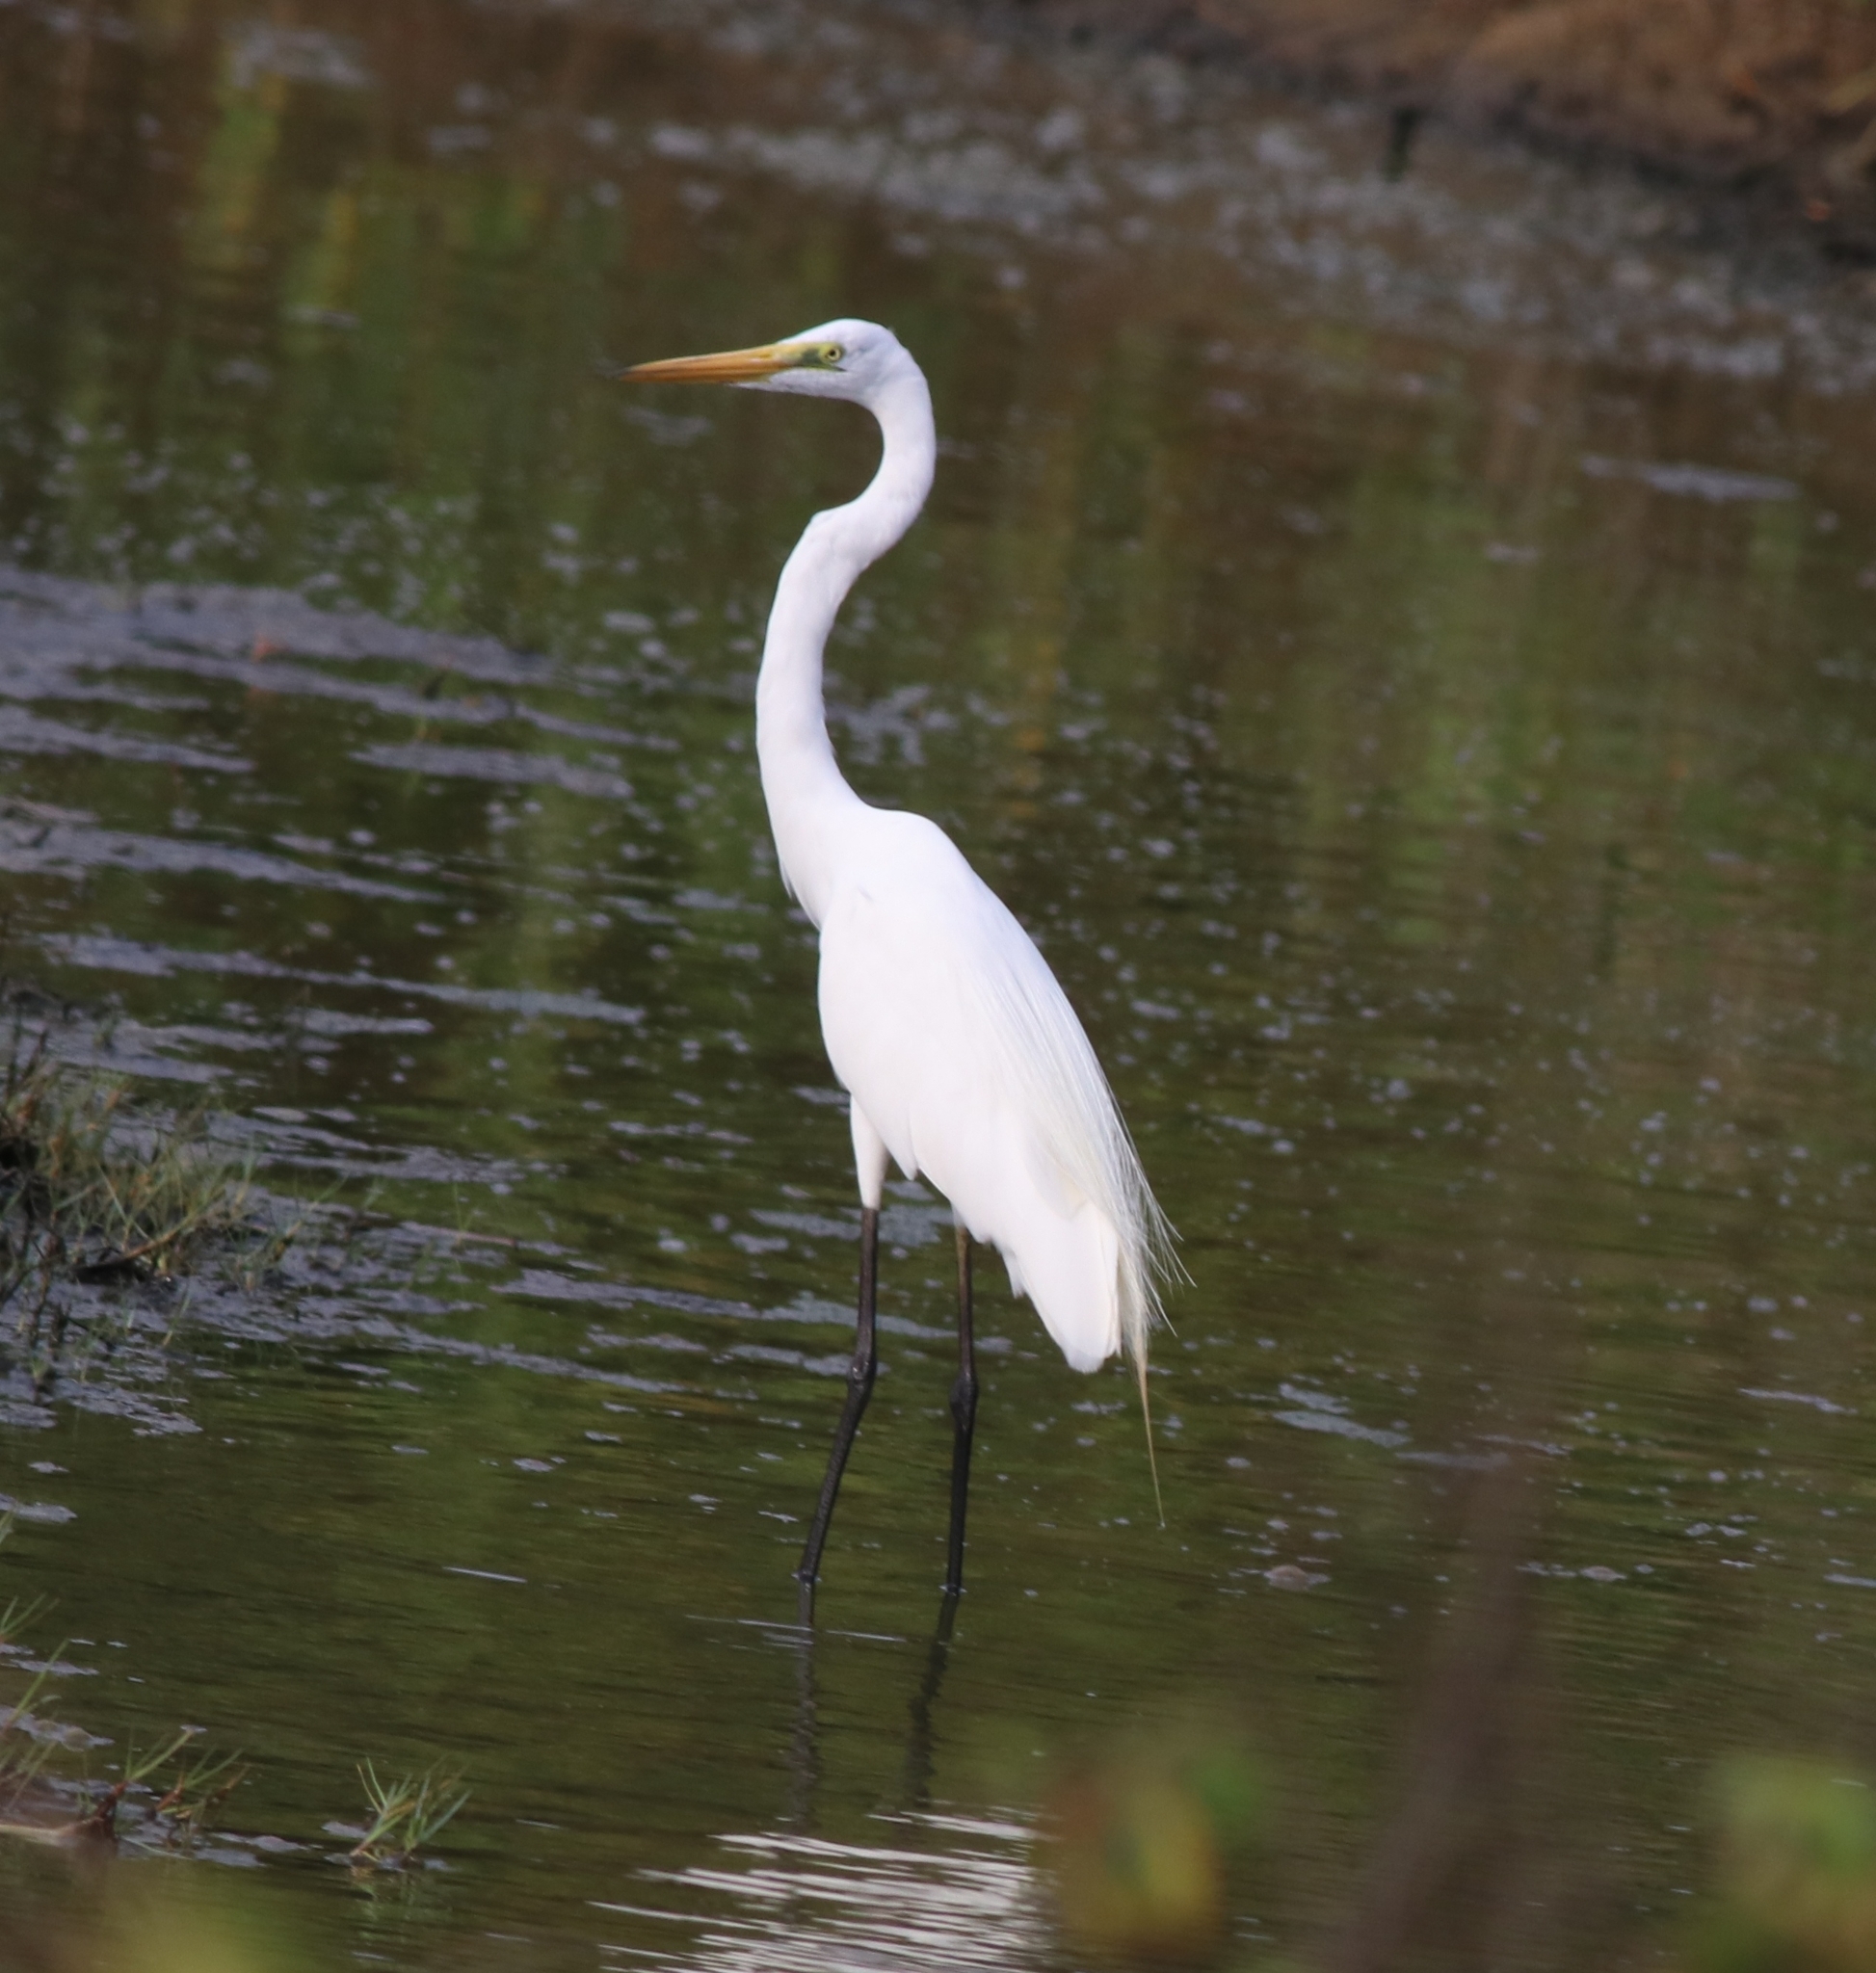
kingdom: Animalia
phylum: Chordata
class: Aves
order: Pelecaniformes
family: Ardeidae
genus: Ardea
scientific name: Ardea alba
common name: Great egret
